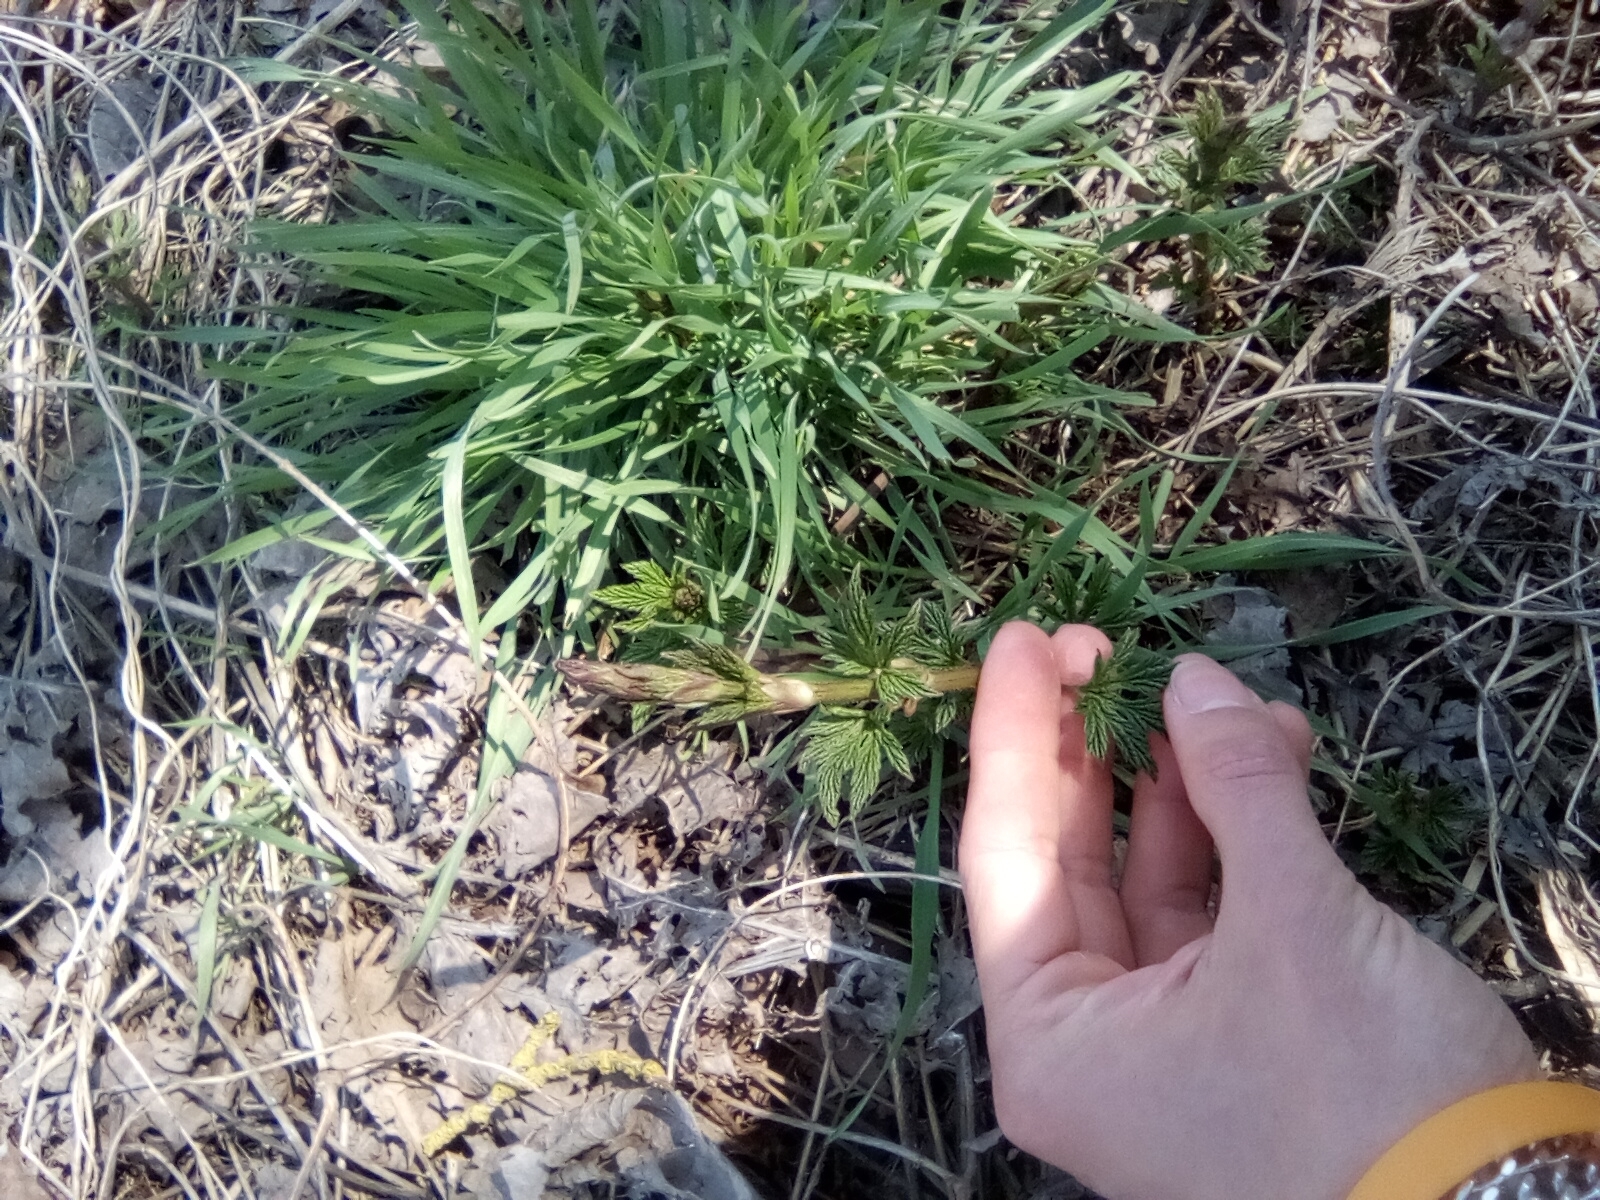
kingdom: Plantae
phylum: Tracheophyta
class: Magnoliopsida
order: Rosales
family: Cannabaceae
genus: Humulus
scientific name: Humulus lupulus
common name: Hop
